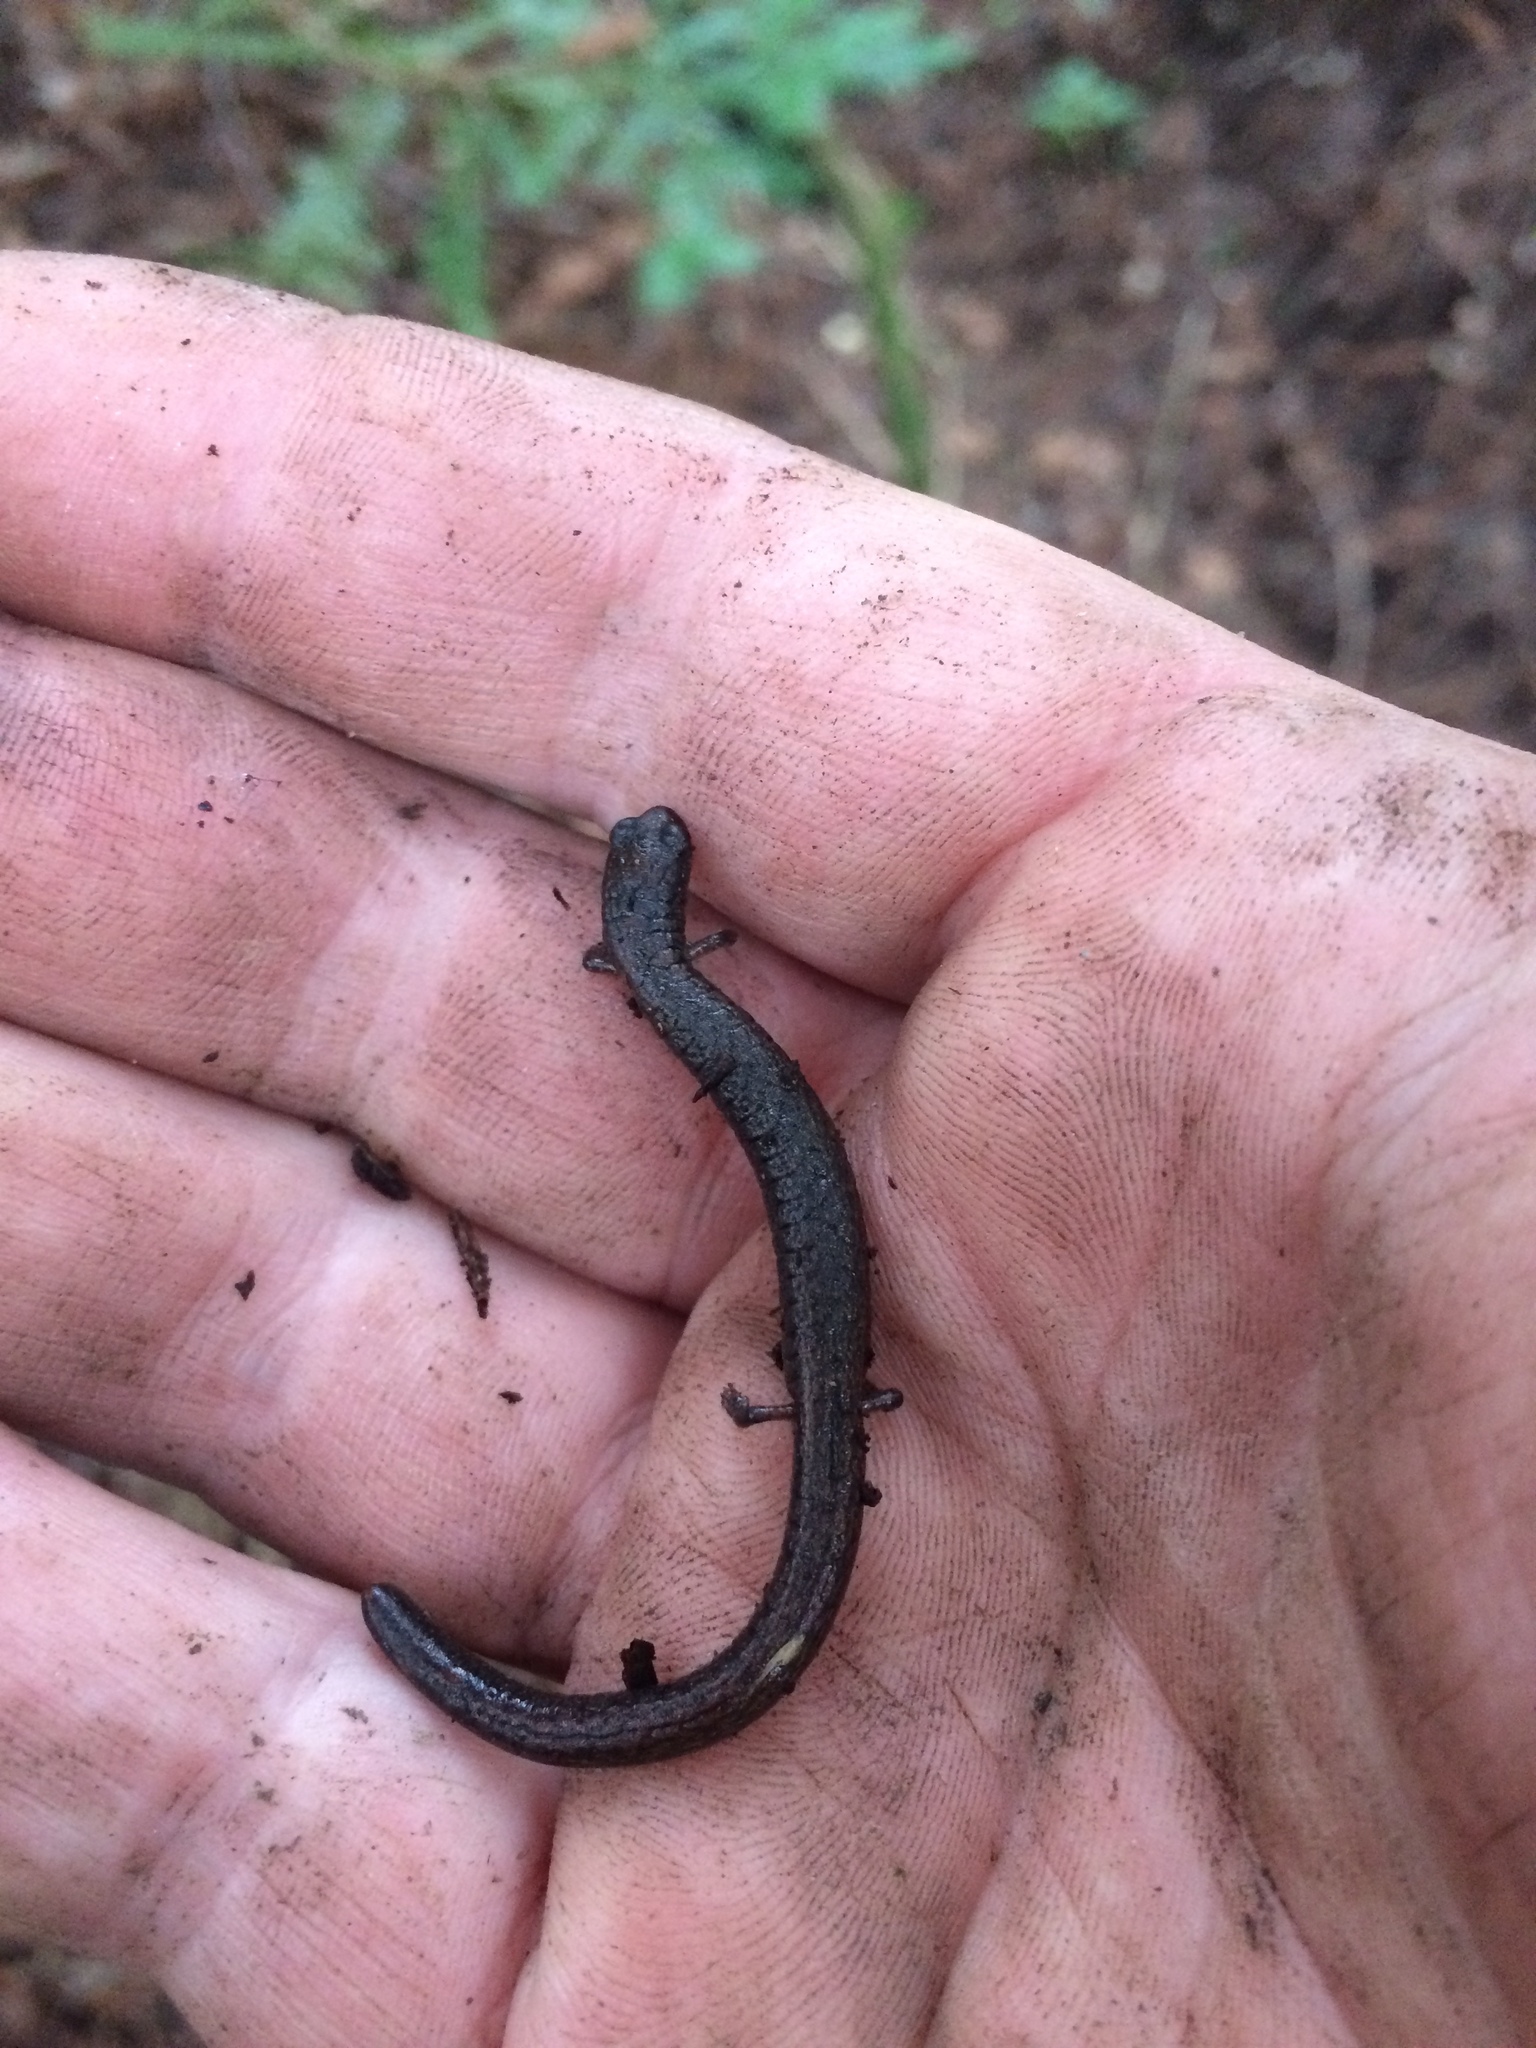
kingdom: Animalia
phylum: Chordata
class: Amphibia
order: Caudata
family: Plethodontidae
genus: Batrachoseps
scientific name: Batrachoseps attenuatus
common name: California slender salamander
